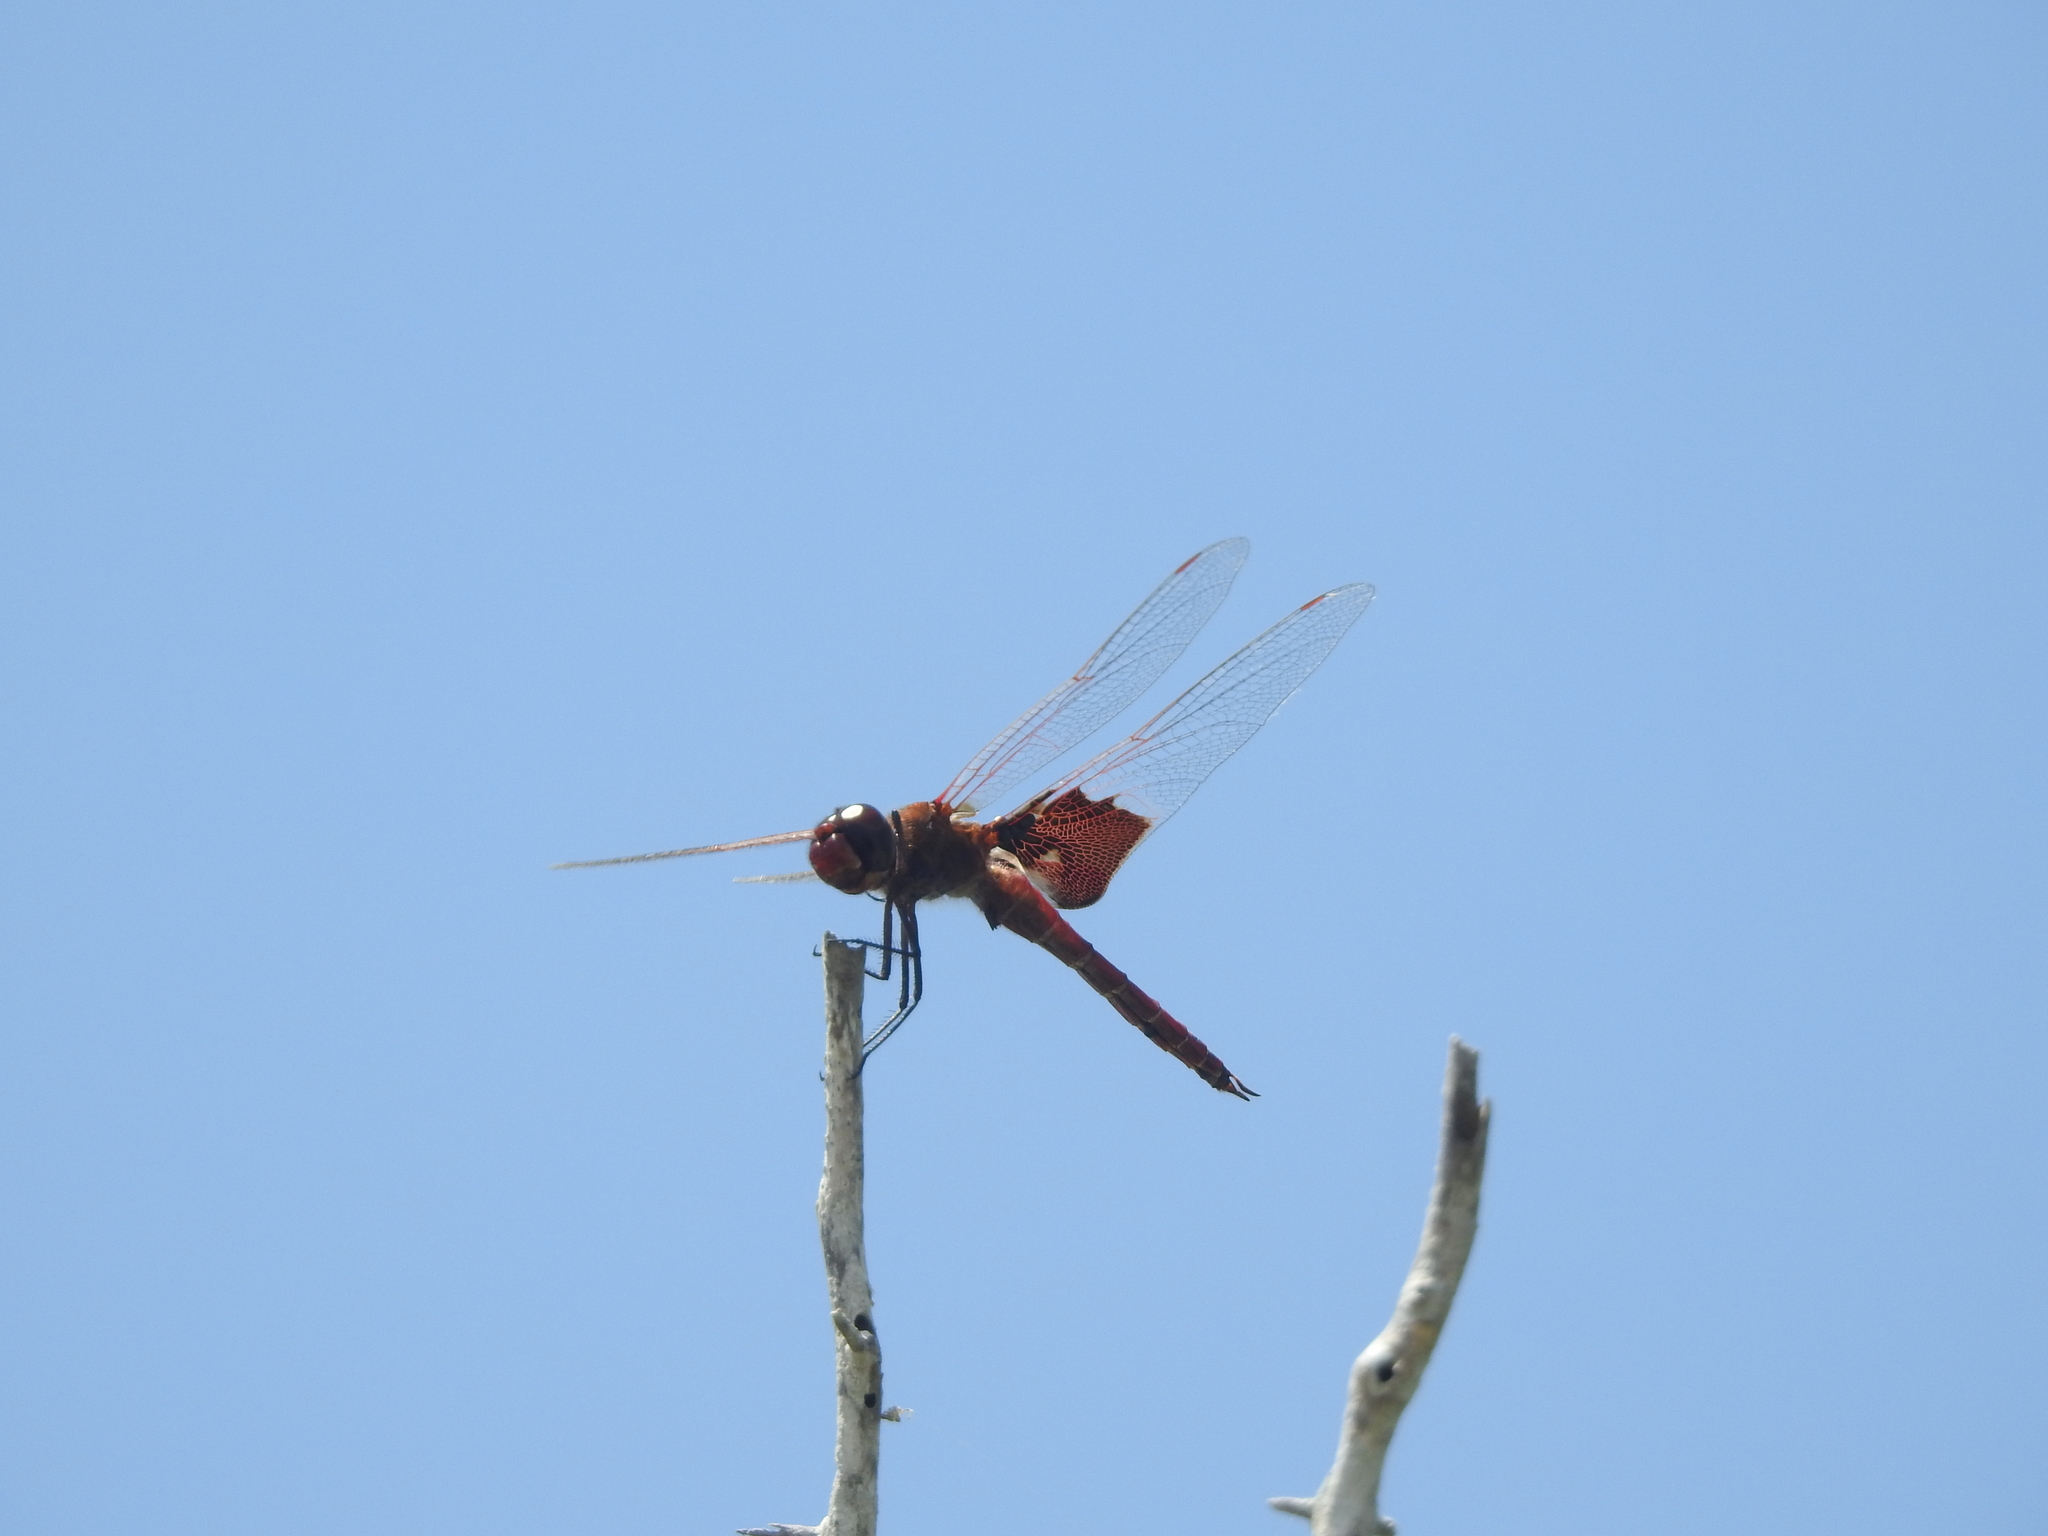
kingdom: Animalia
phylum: Arthropoda
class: Insecta
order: Odonata
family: Libellulidae
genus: Tramea
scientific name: Tramea onusta
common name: Red saddlebags
